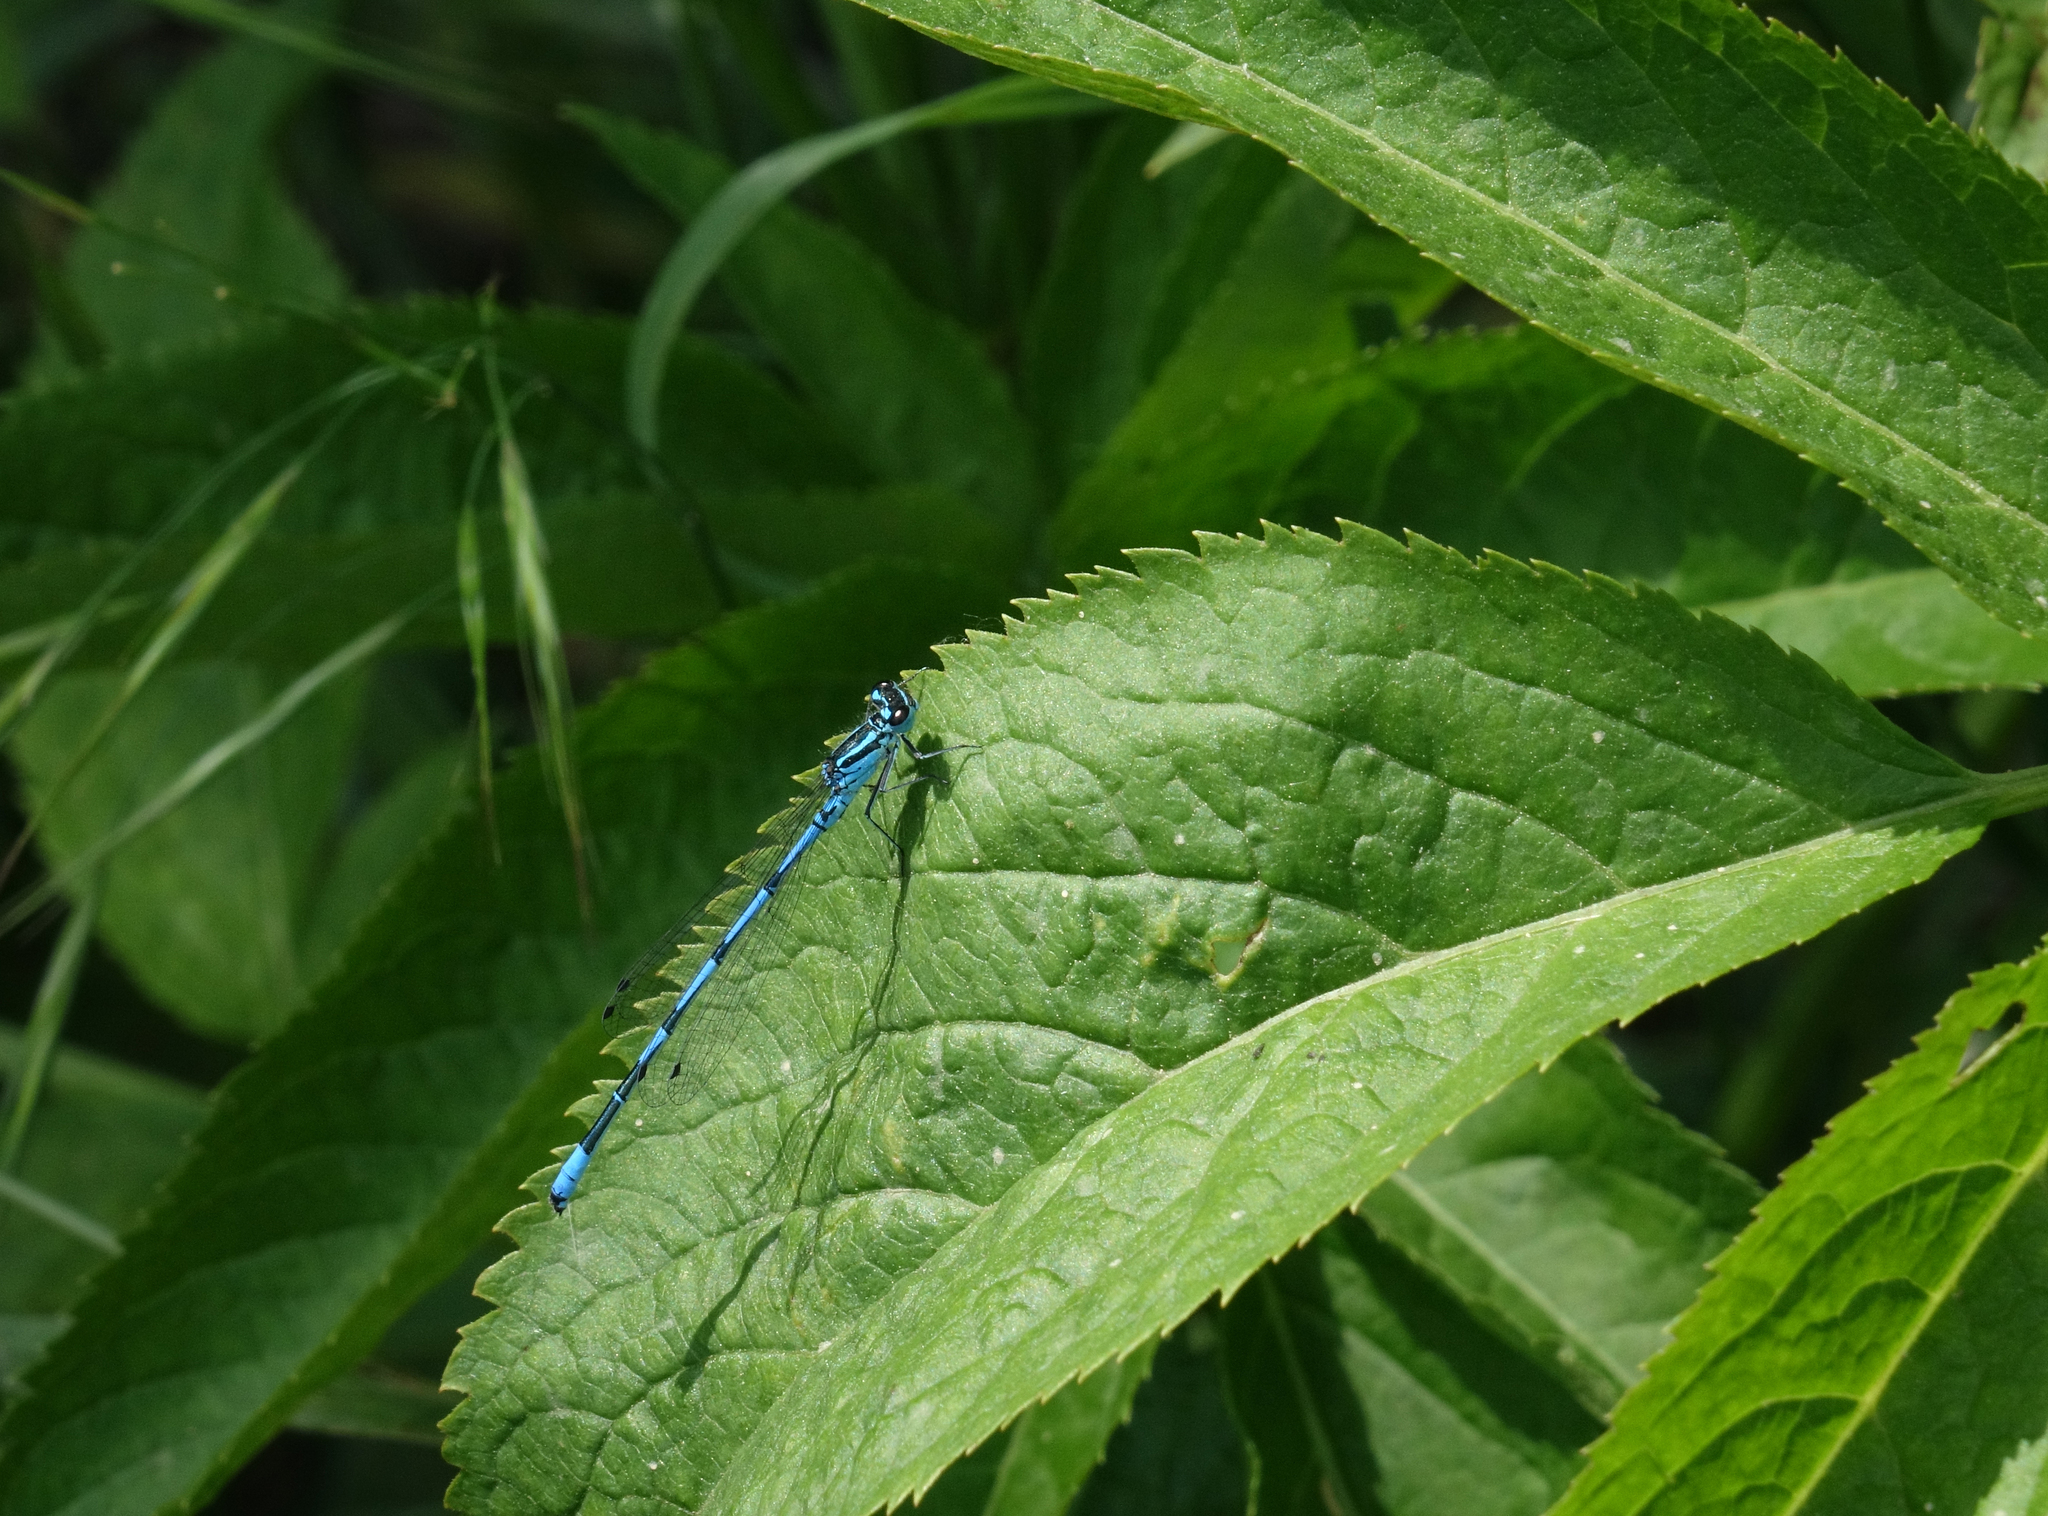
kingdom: Animalia
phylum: Arthropoda
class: Insecta
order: Odonata
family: Coenagrionidae
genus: Coenagrion
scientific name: Coenagrion australocaspicum
